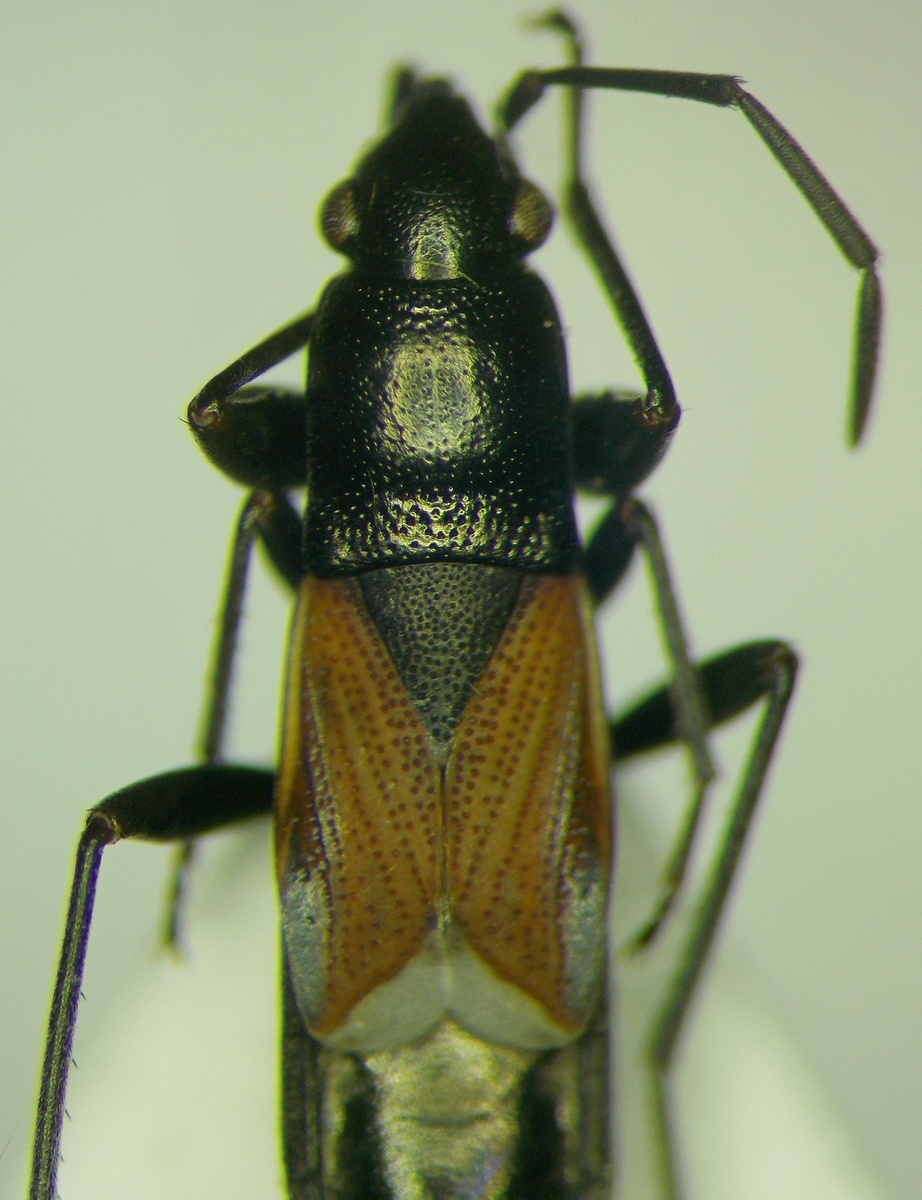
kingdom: Animalia
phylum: Arthropoda
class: Insecta
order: Hemiptera
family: Rhyparochromidae
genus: Pterotmetus
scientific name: Pterotmetus staphyliniformis
